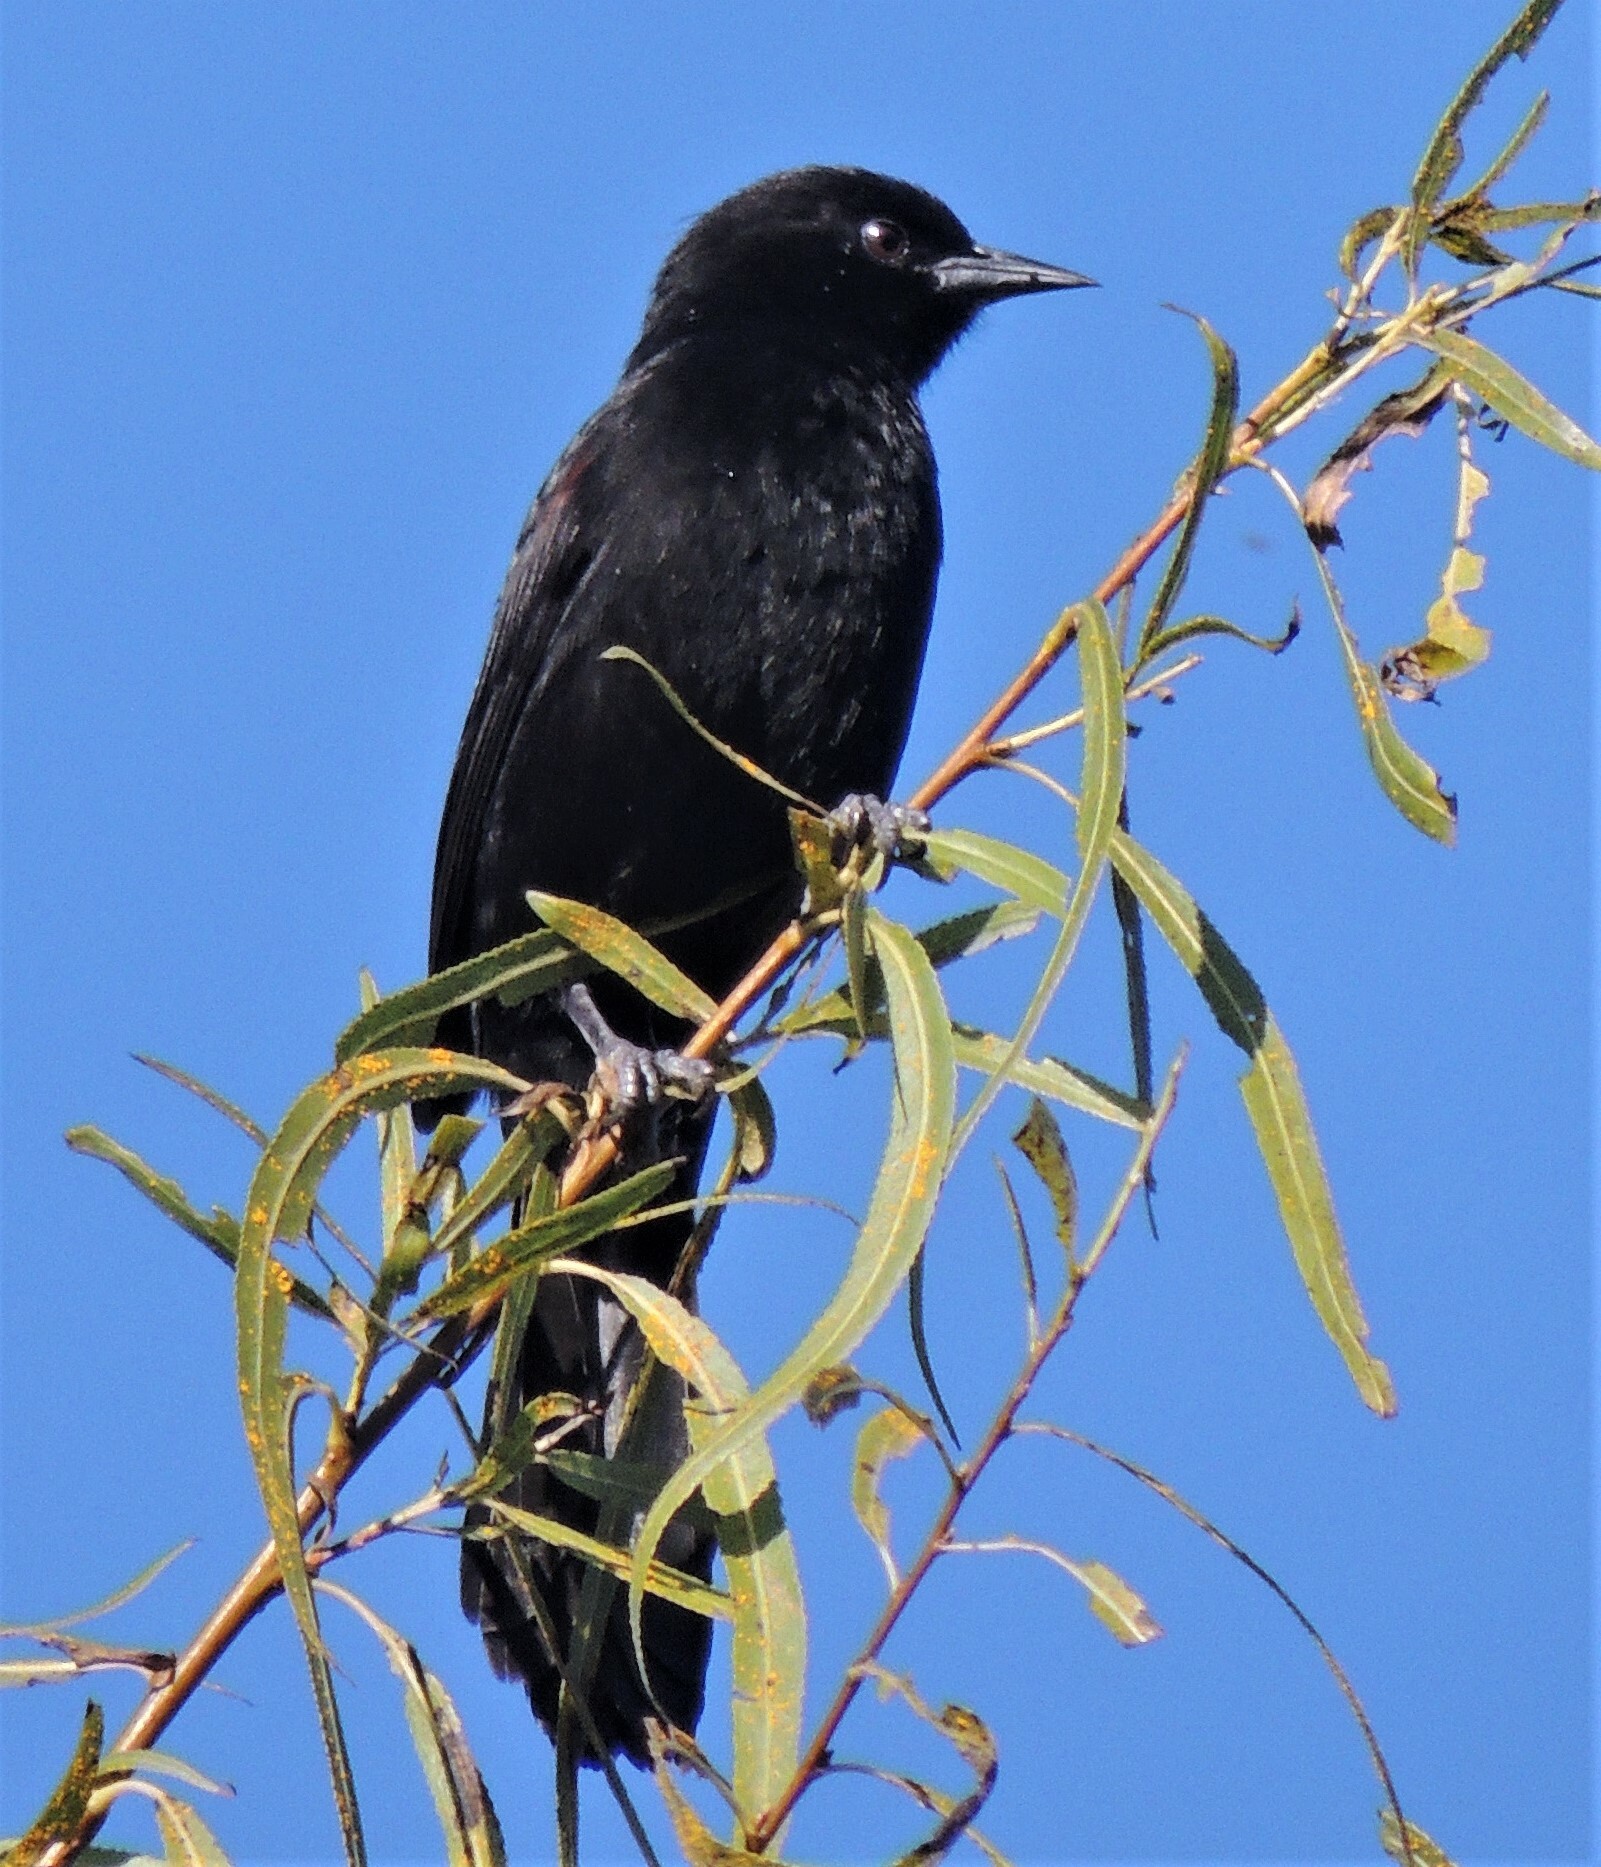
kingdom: Animalia
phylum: Chordata
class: Aves
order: Passeriformes
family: Icteridae
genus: Icterus
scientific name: Icterus cayanensis
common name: Epaulet oriole
